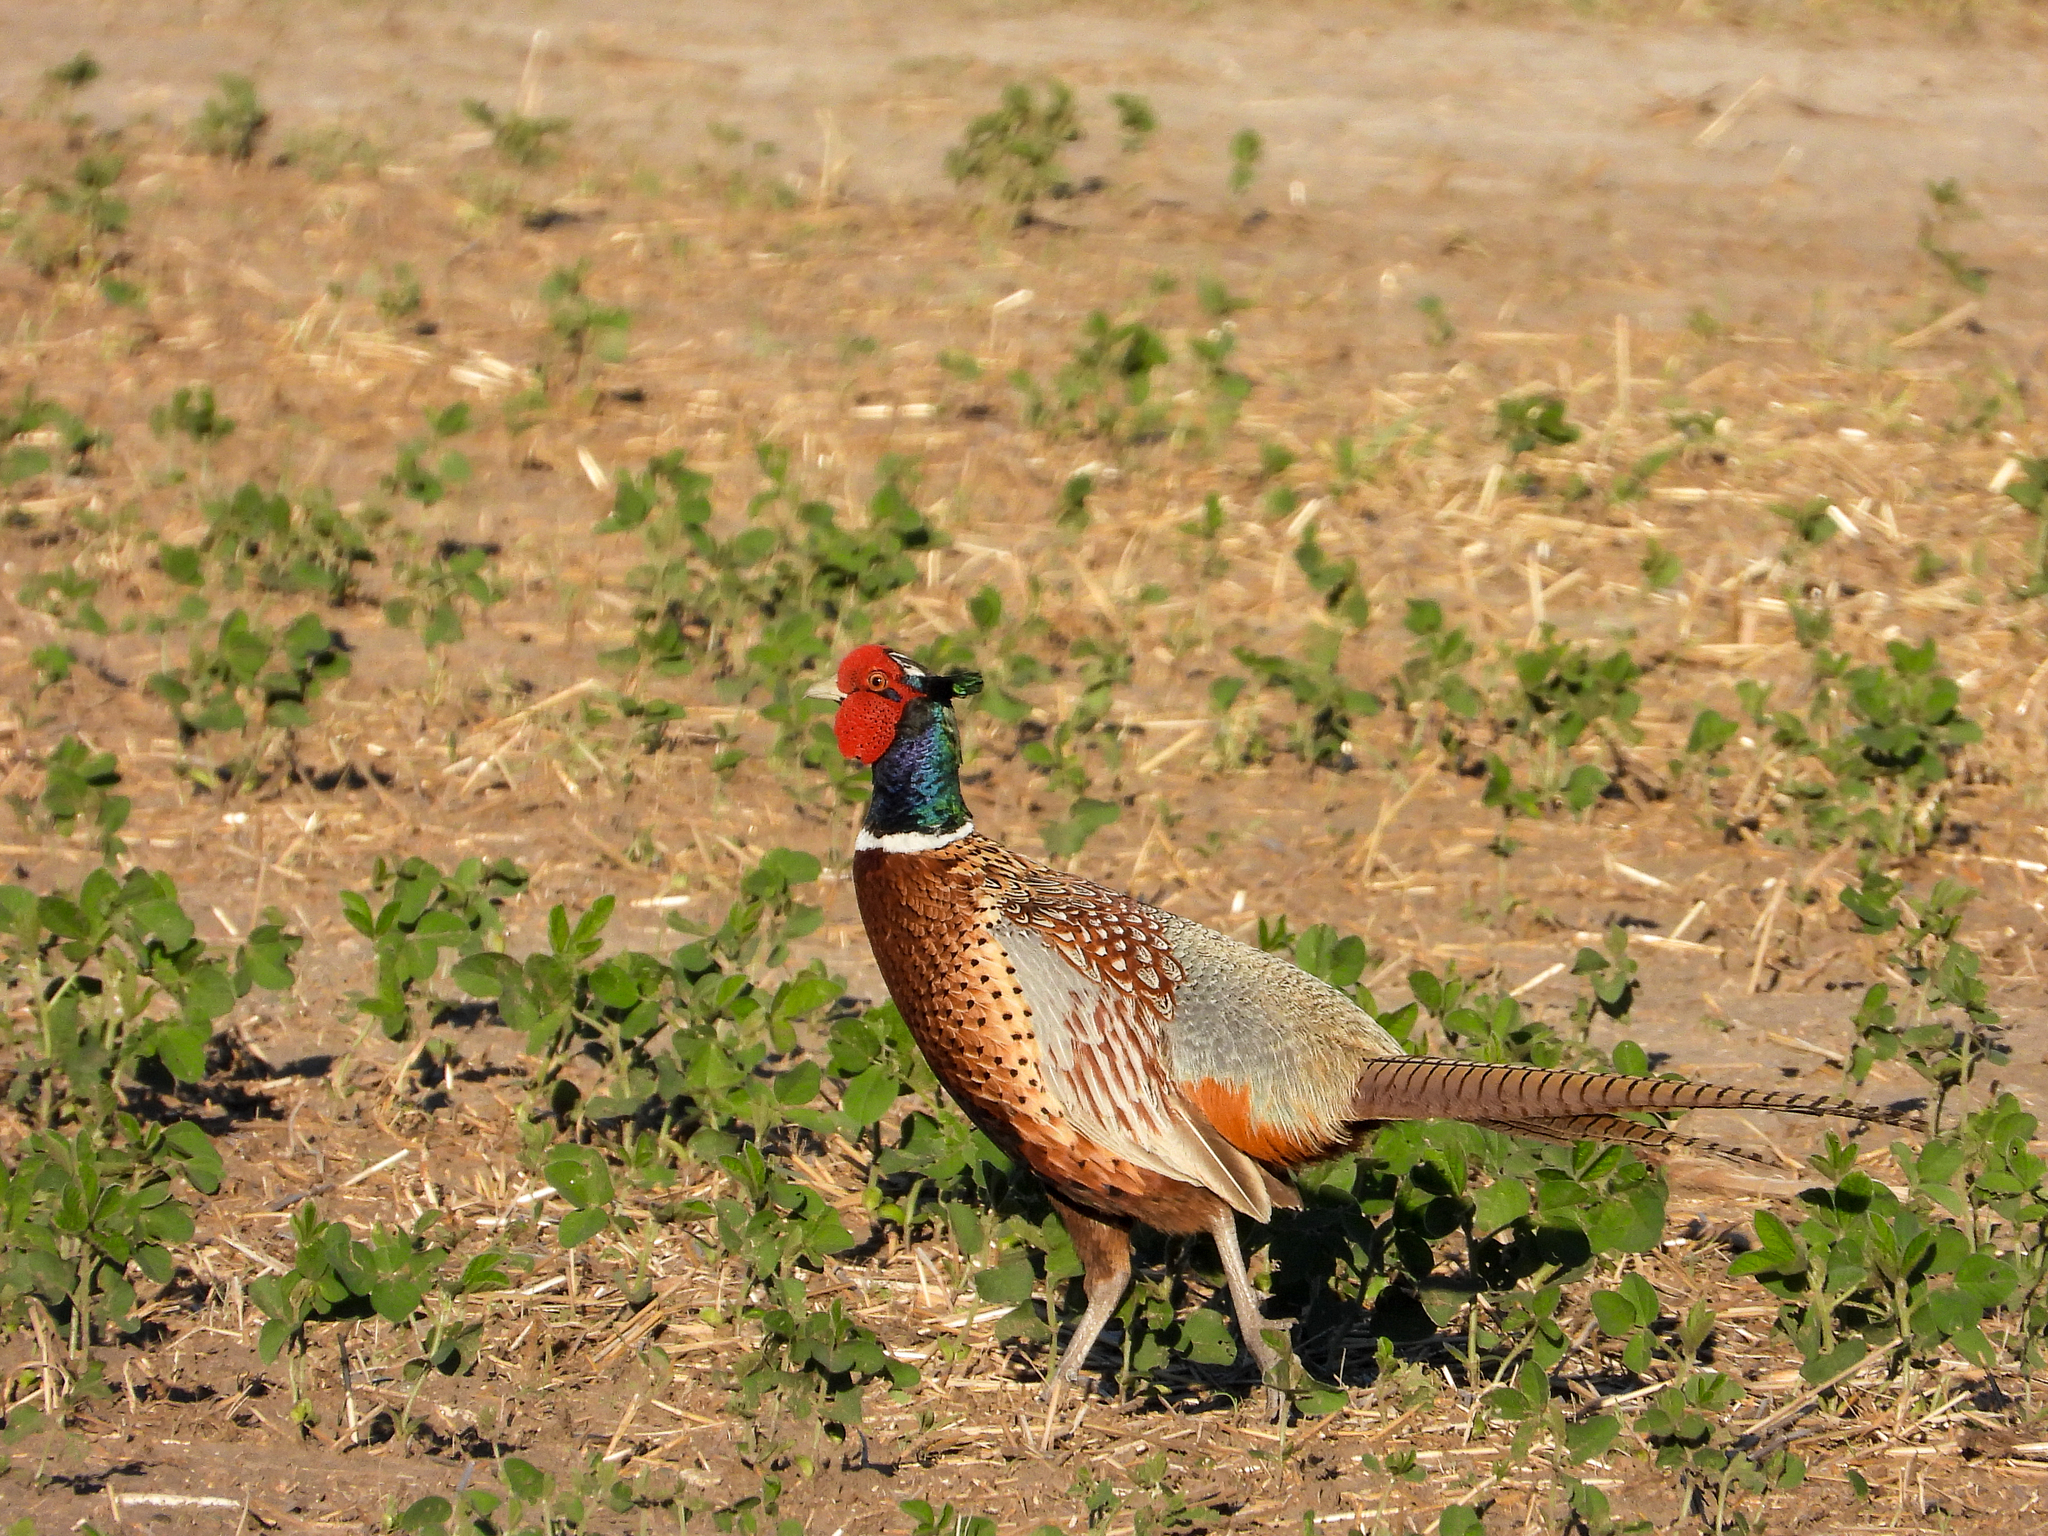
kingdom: Animalia
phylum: Chordata
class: Aves
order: Galliformes
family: Phasianidae
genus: Phasianus
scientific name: Phasianus colchicus
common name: Common pheasant
